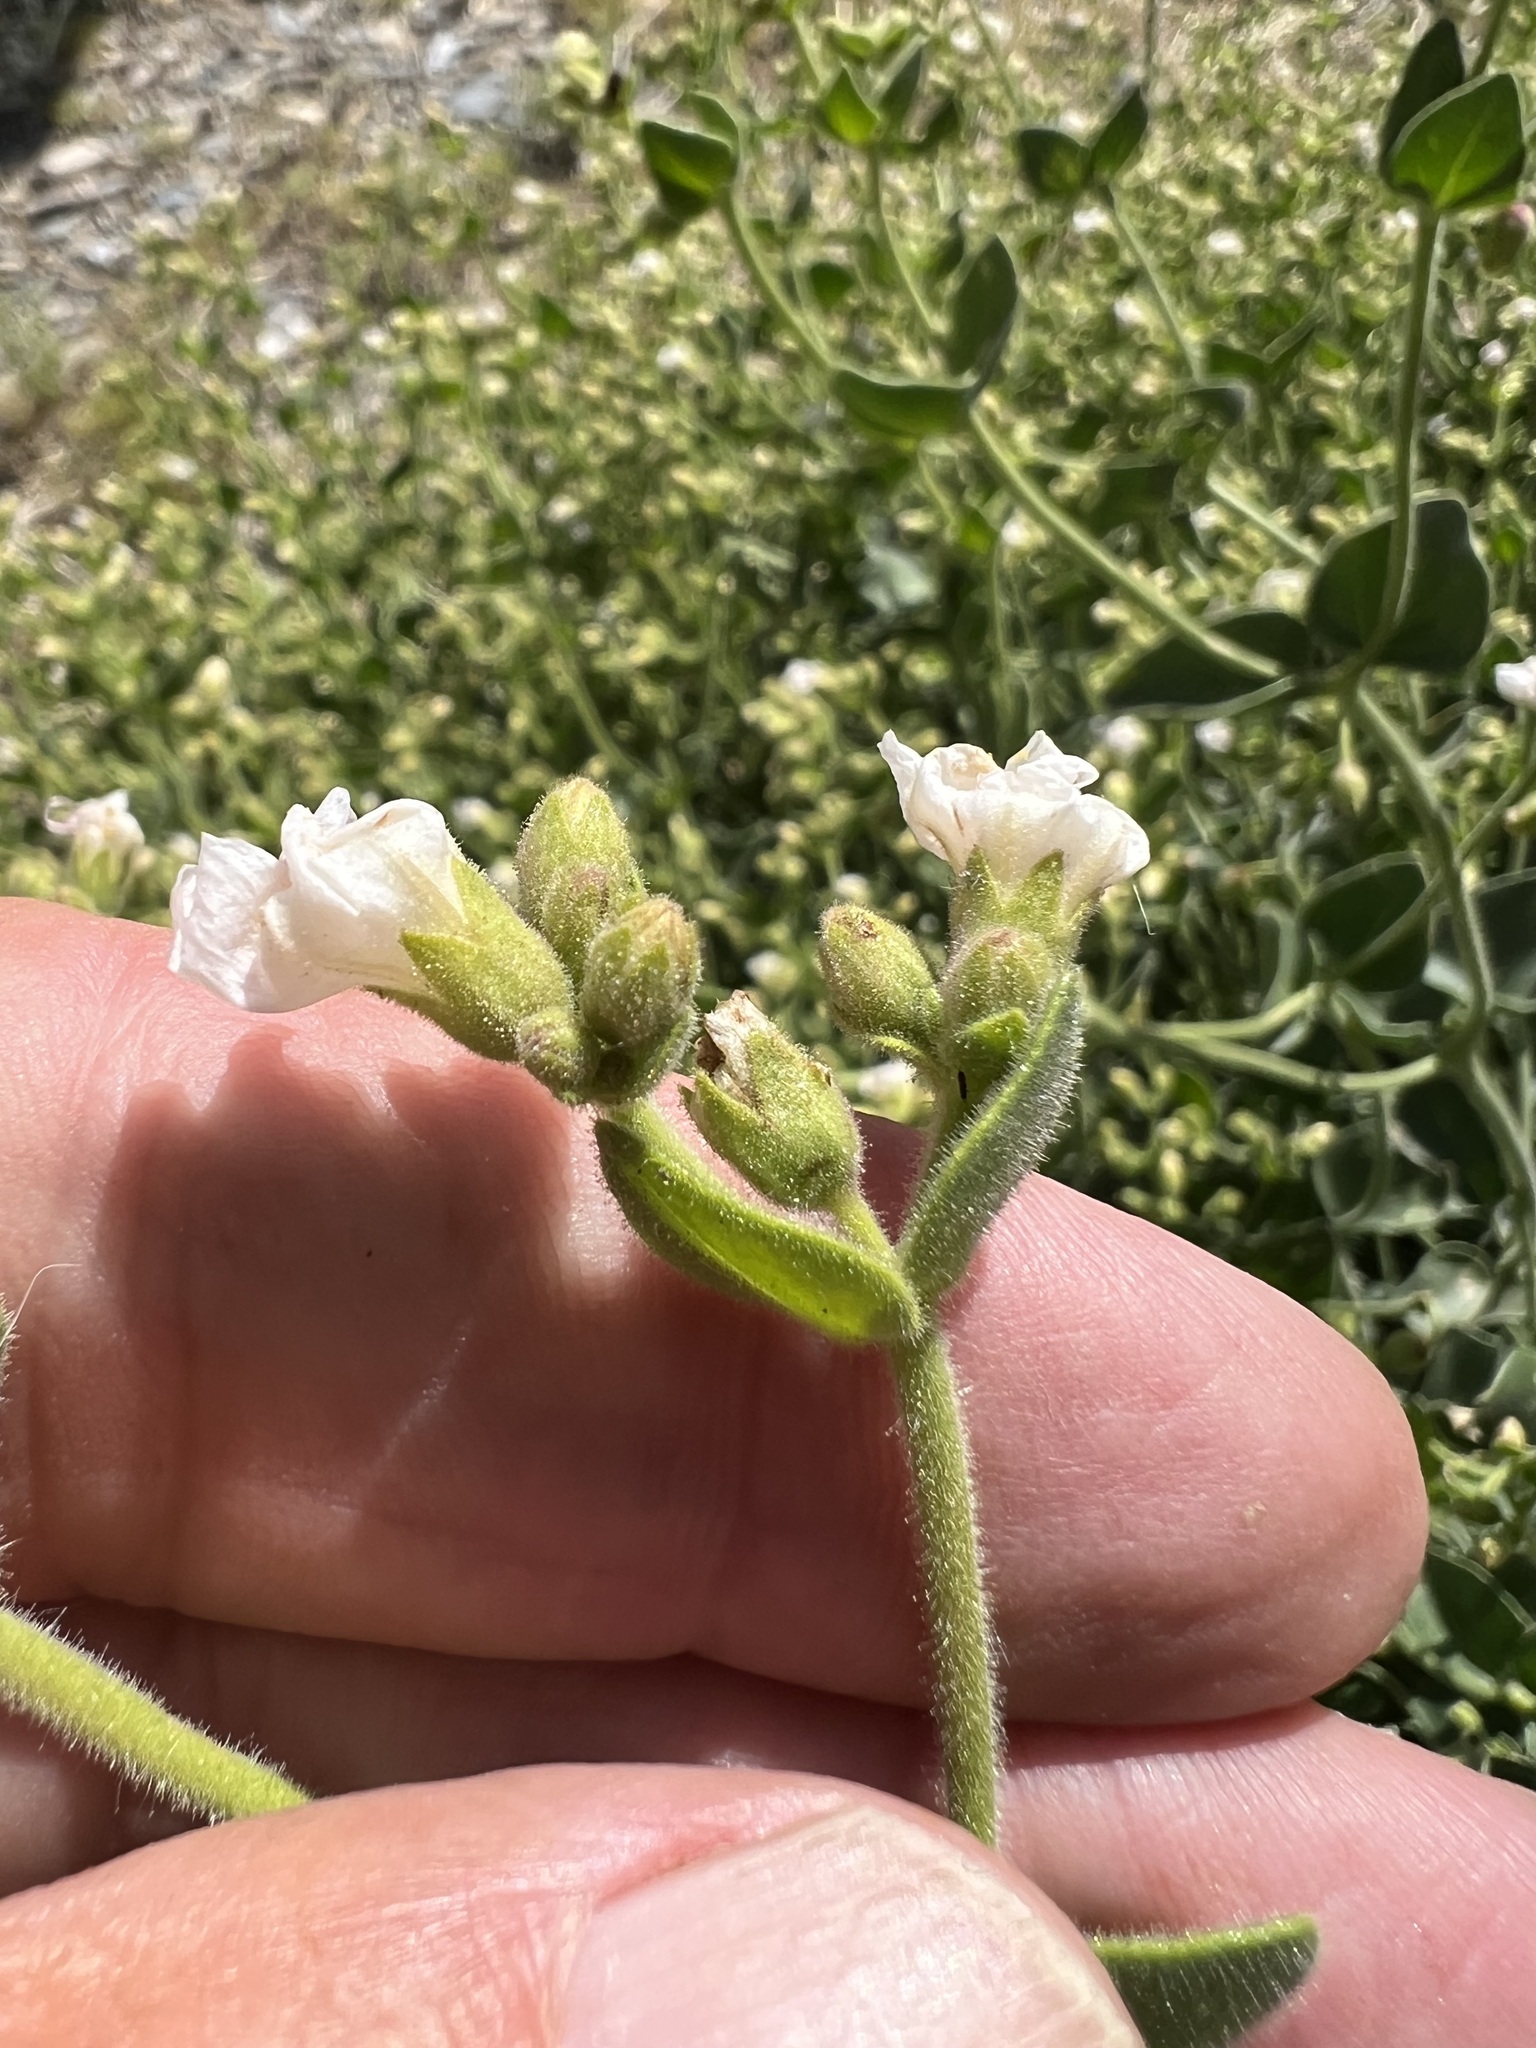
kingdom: Plantae
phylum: Tracheophyta
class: Magnoliopsida
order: Caryophyllales
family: Nyctaginaceae
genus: Mirabilis
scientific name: Mirabilis laevis
